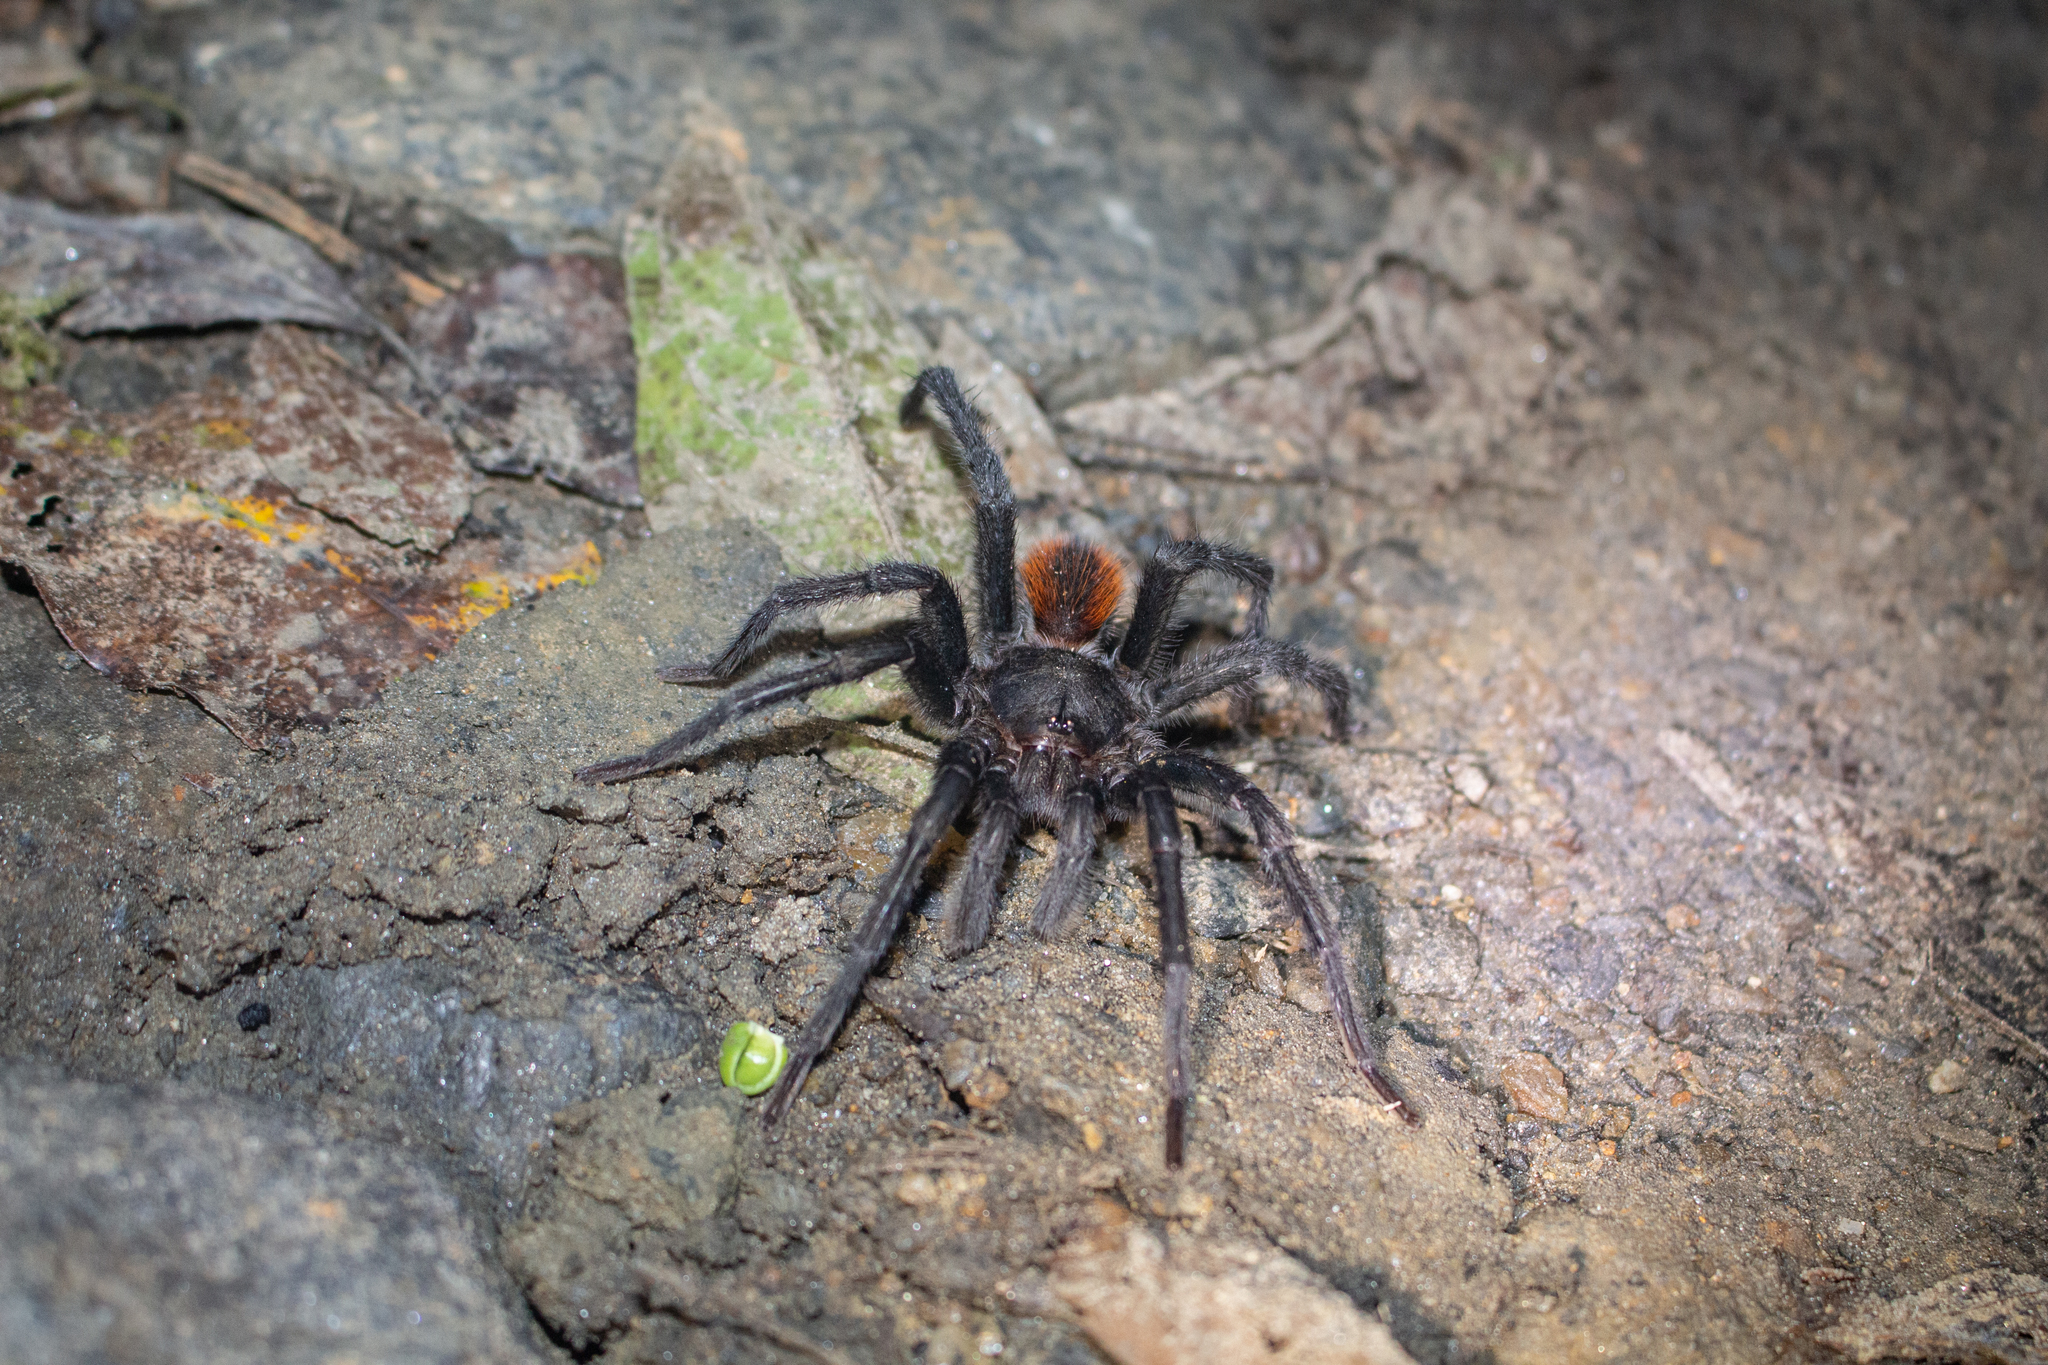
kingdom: Animalia
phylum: Arthropoda
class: Arachnida
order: Araneae
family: Theraphosidae
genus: Kankuamo
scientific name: Kankuamo marquezi
